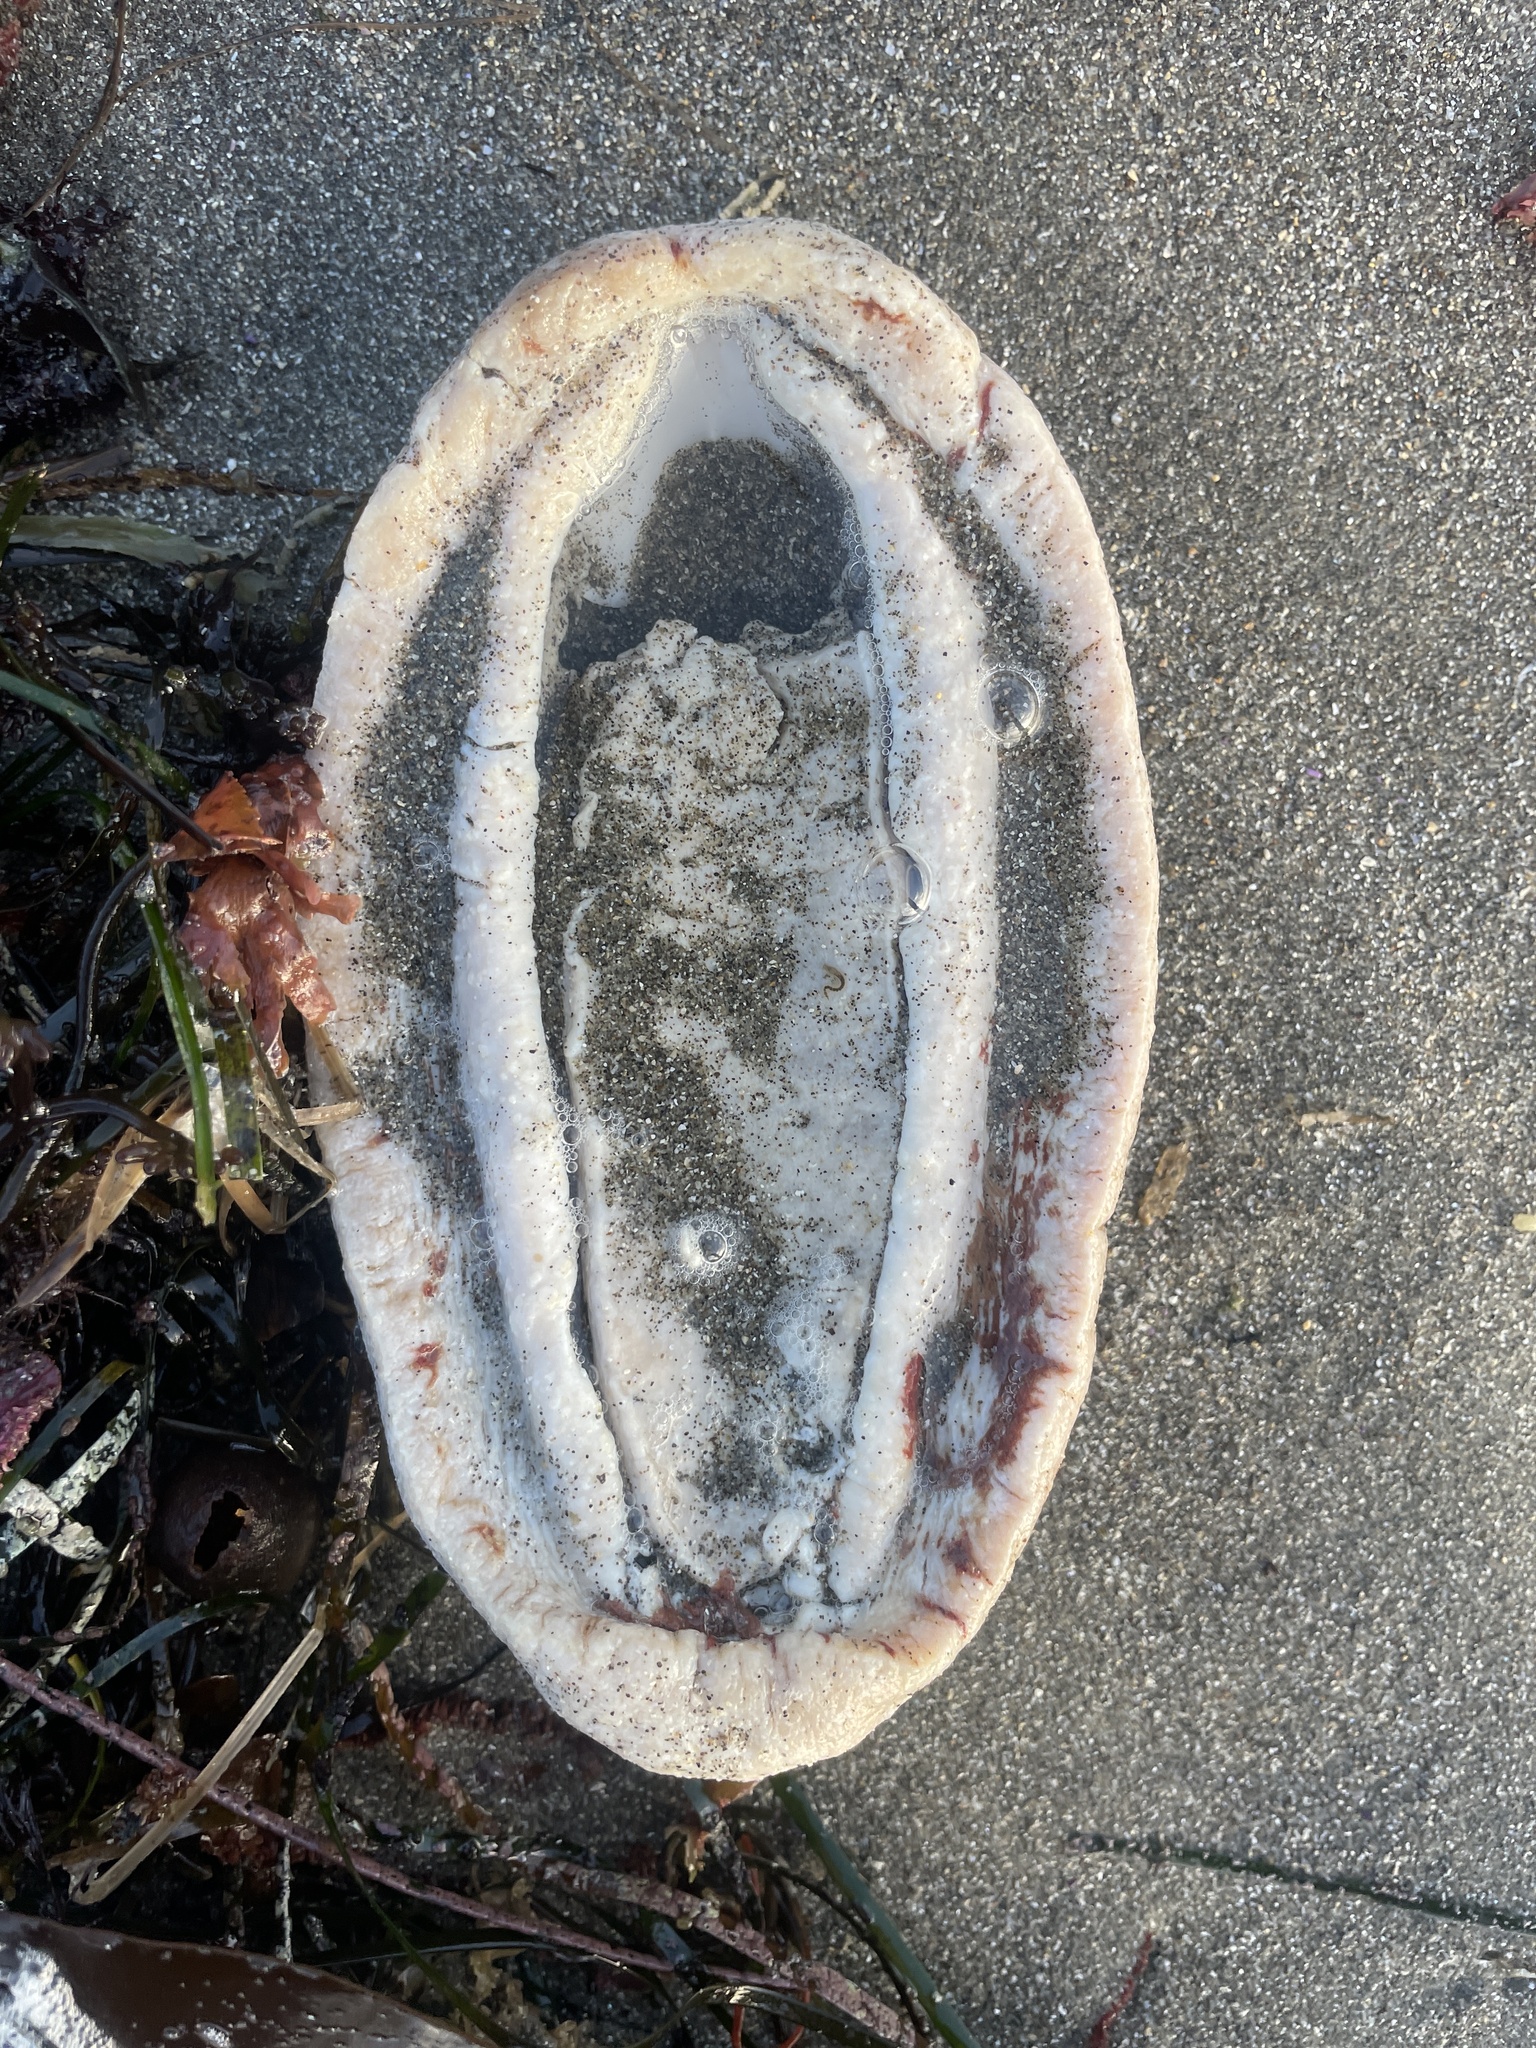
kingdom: Animalia
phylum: Mollusca
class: Polyplacophora
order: Chitonida
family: Acanthochitonidae
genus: Cryptochiton
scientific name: Cryptochiton stelleri
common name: Giant pacific chiton
